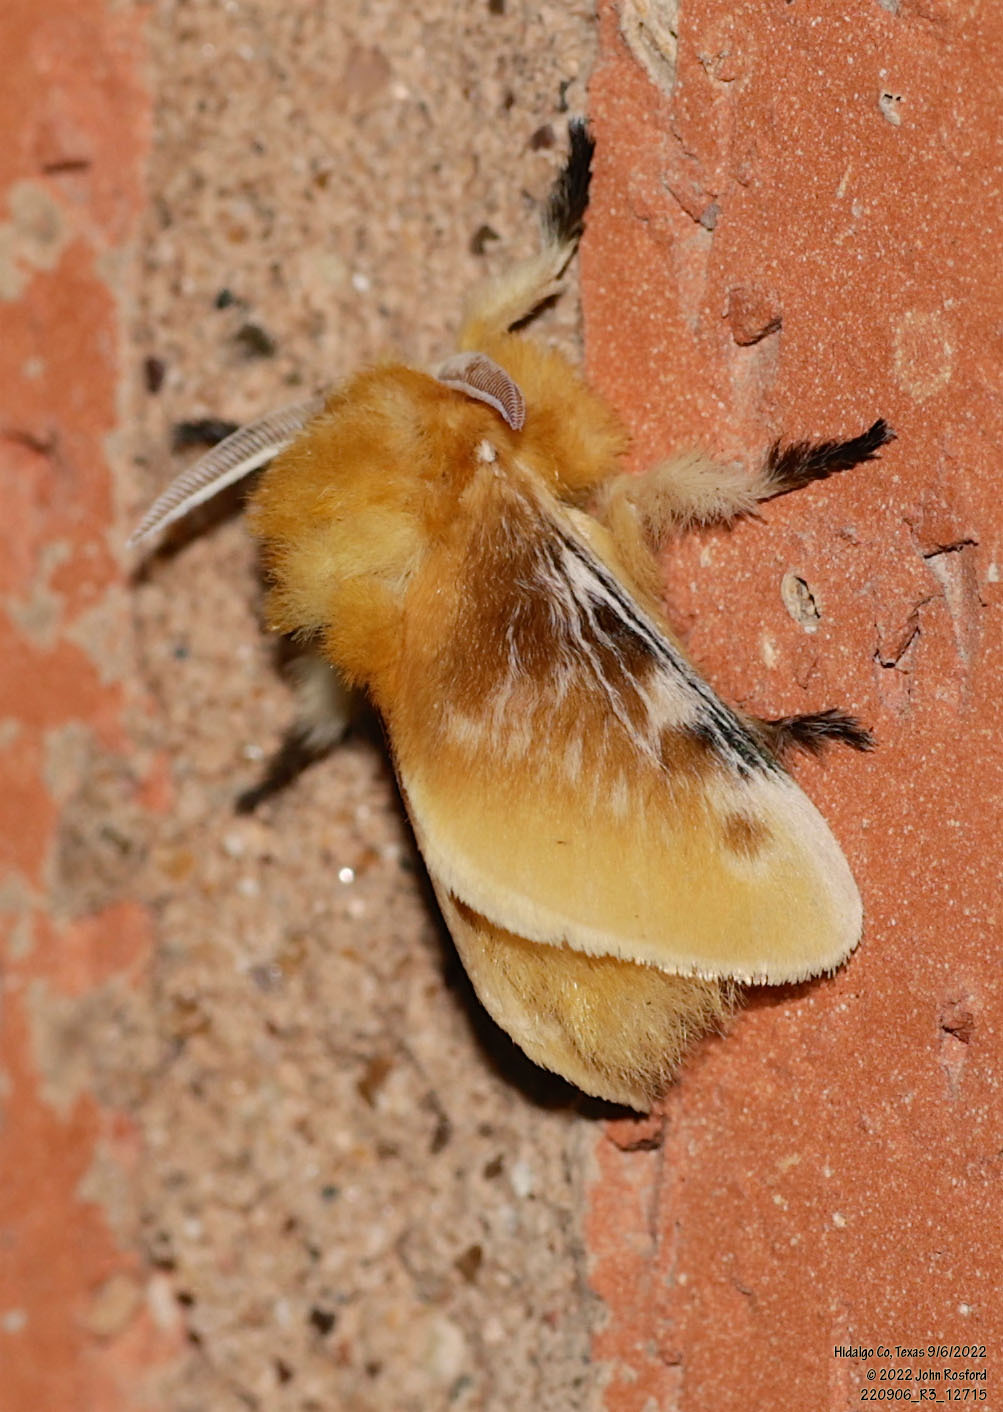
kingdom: Animalia
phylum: Arthropoda
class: Insecta
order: Lepidoptera
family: Megalopygidae
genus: Megalopyge
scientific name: Megalopyge opercularis
